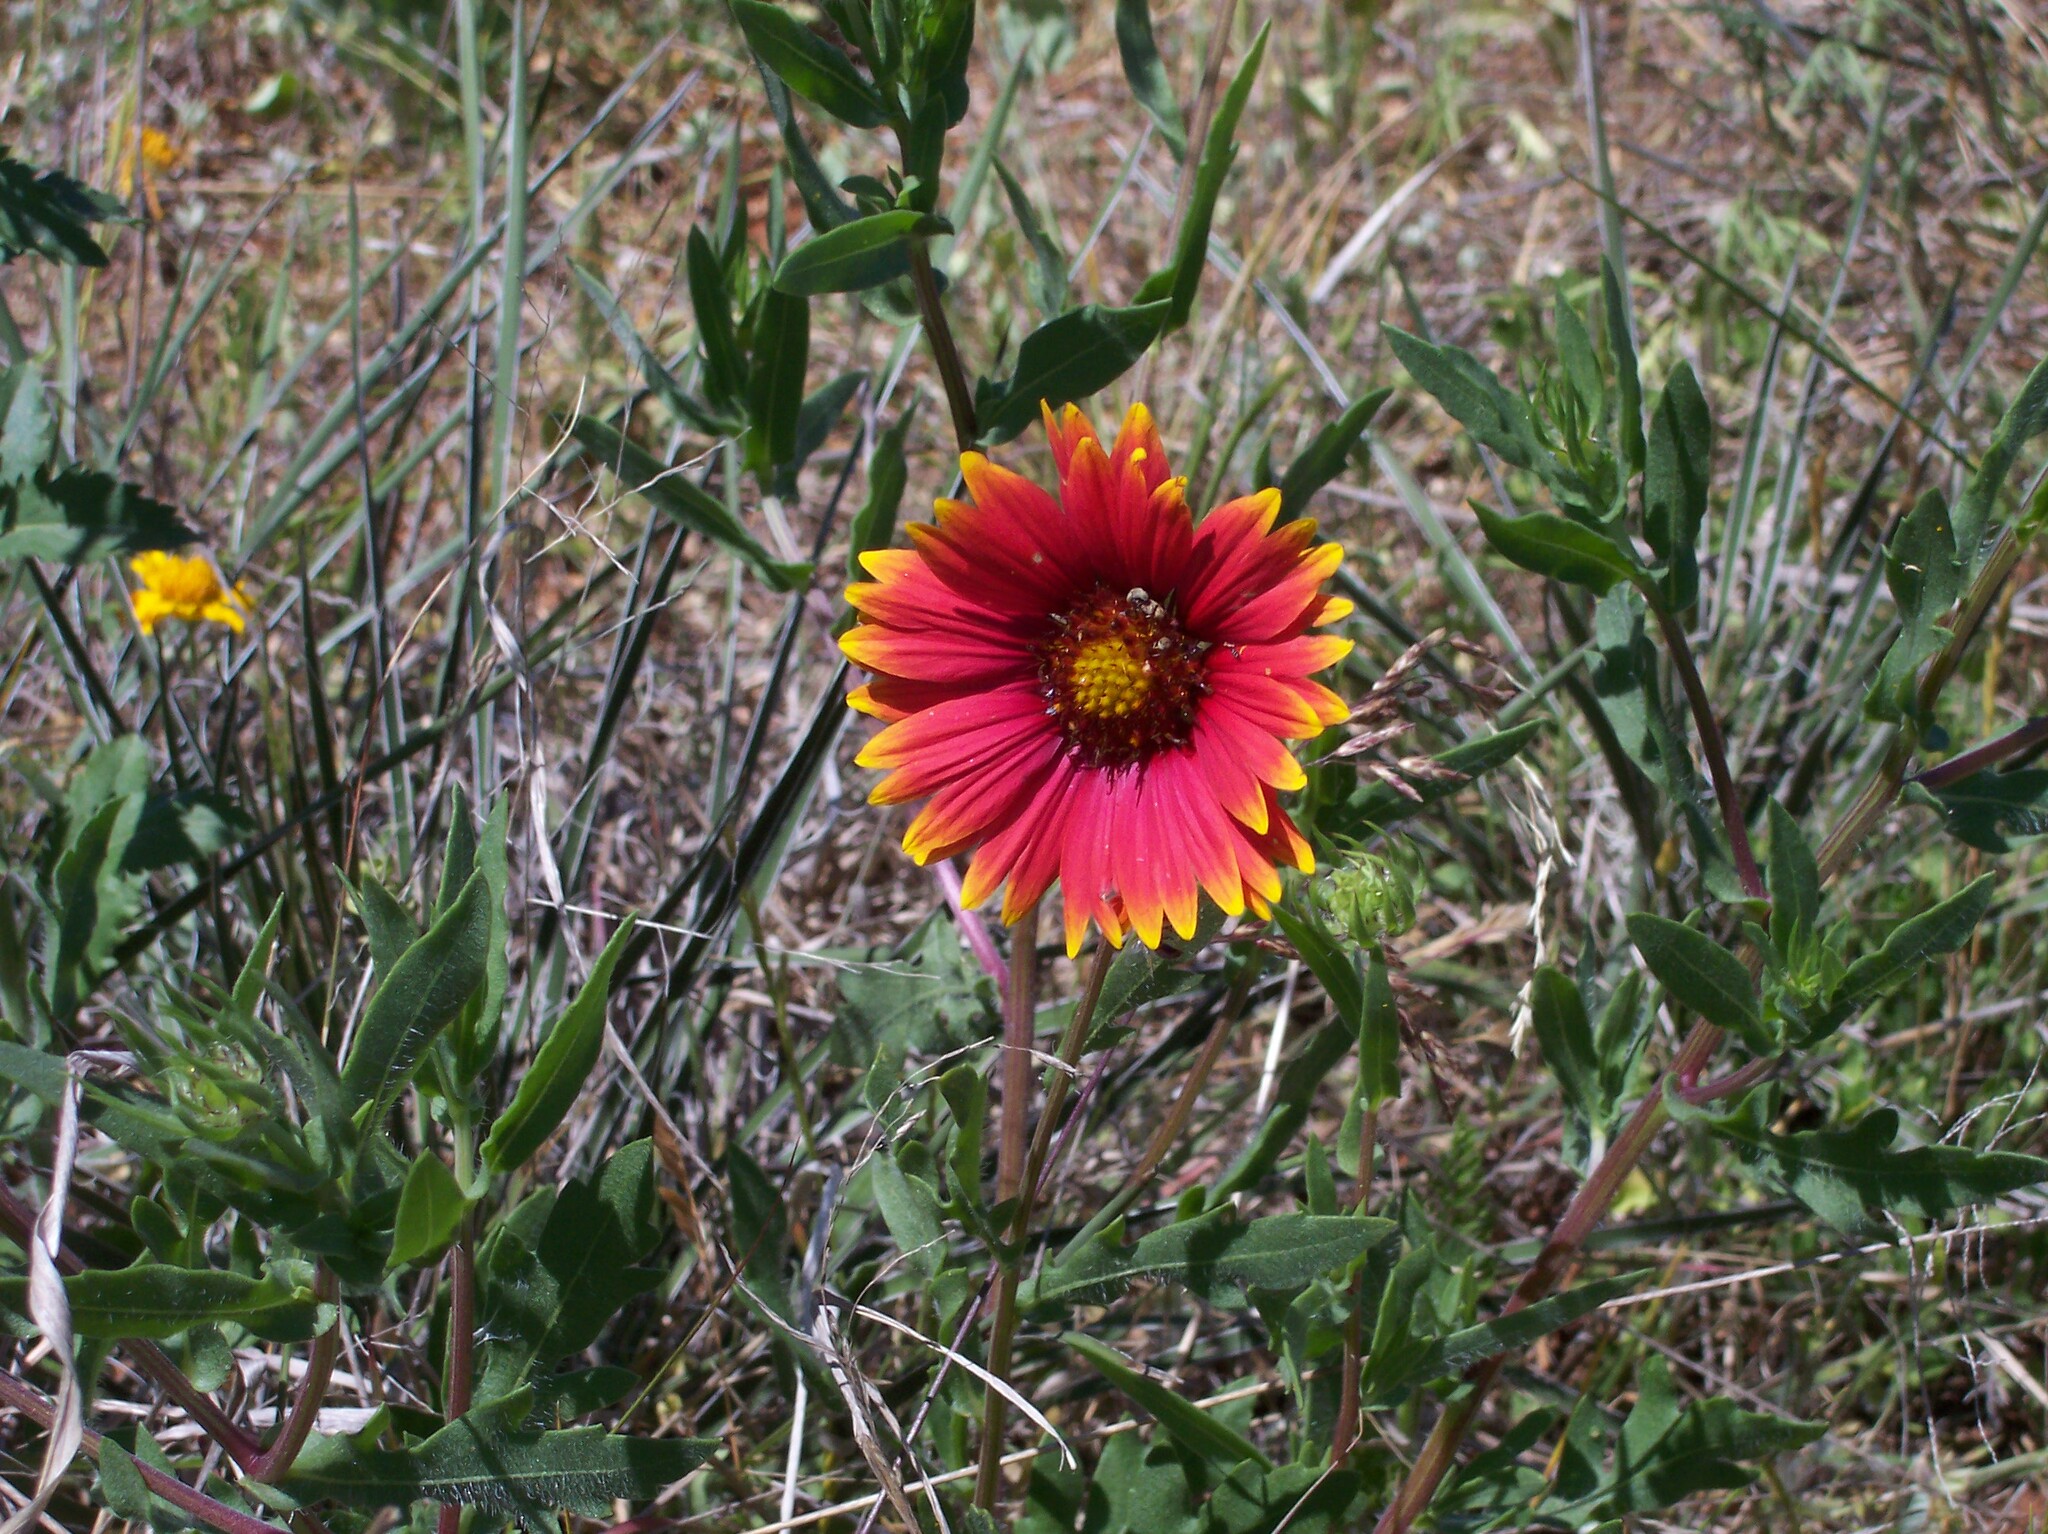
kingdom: Plantae
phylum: Tracheophyta
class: Magnoliopsida
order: Asterales
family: Asteraceae
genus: Gaillardia
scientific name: Gaillardia pulchella
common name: Firewheel
